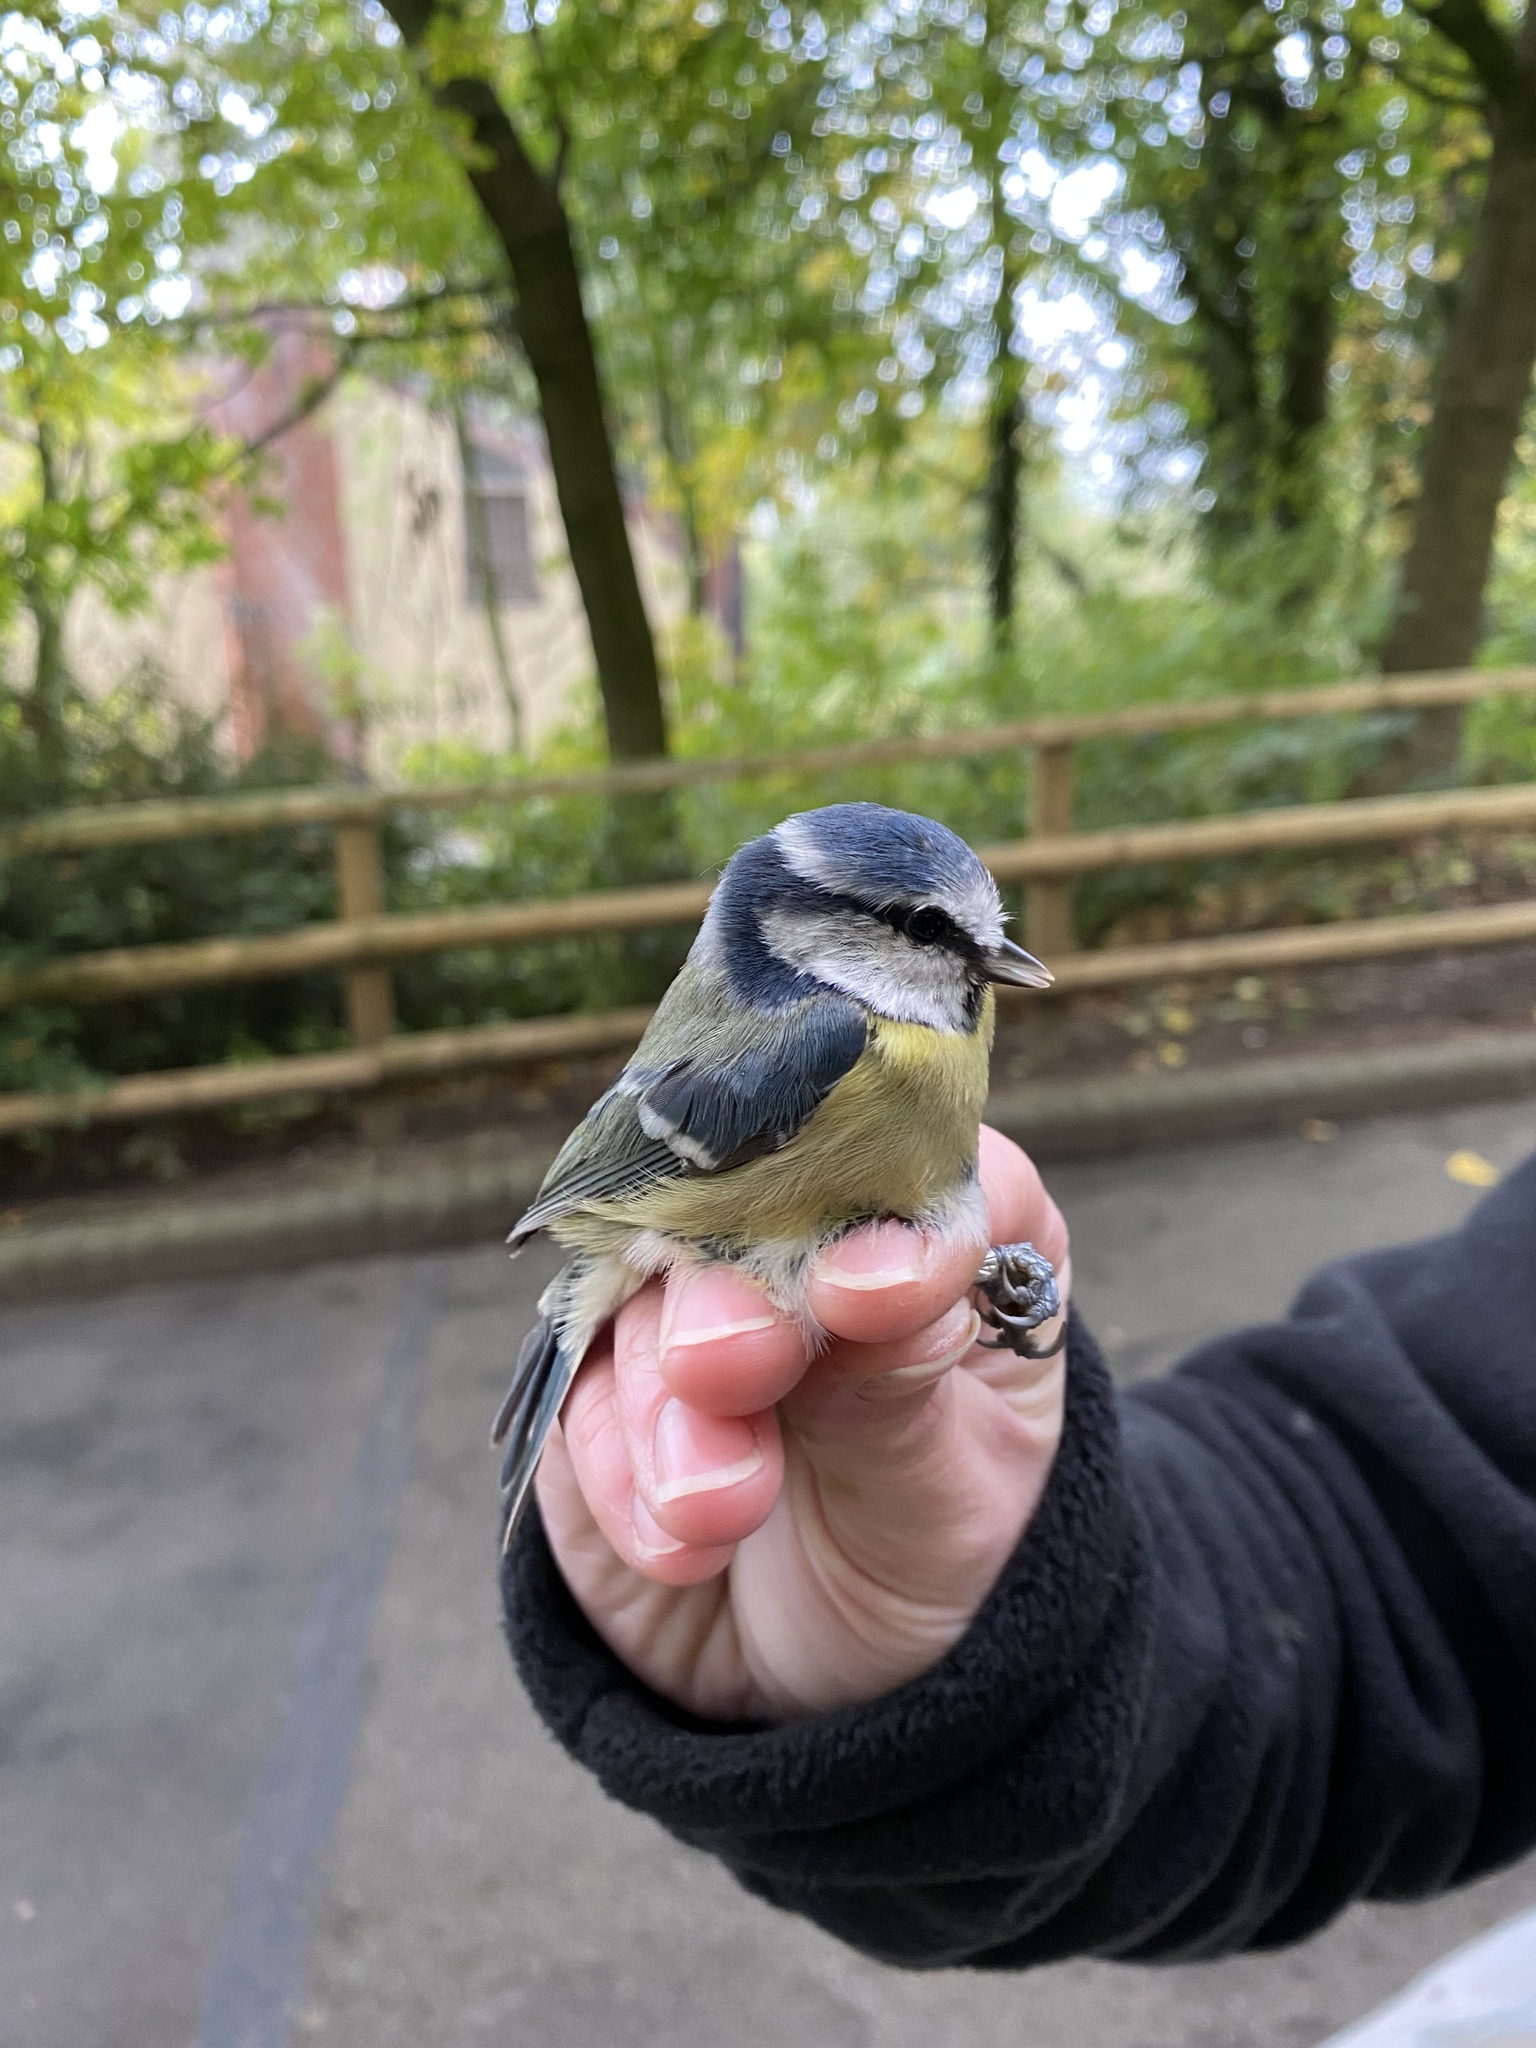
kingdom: Animalia
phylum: Chordata
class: Aves
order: Passeriformes
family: Paridae
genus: Cyanistes
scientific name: Cyanistes caeruleus
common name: Eurasian blue tit
